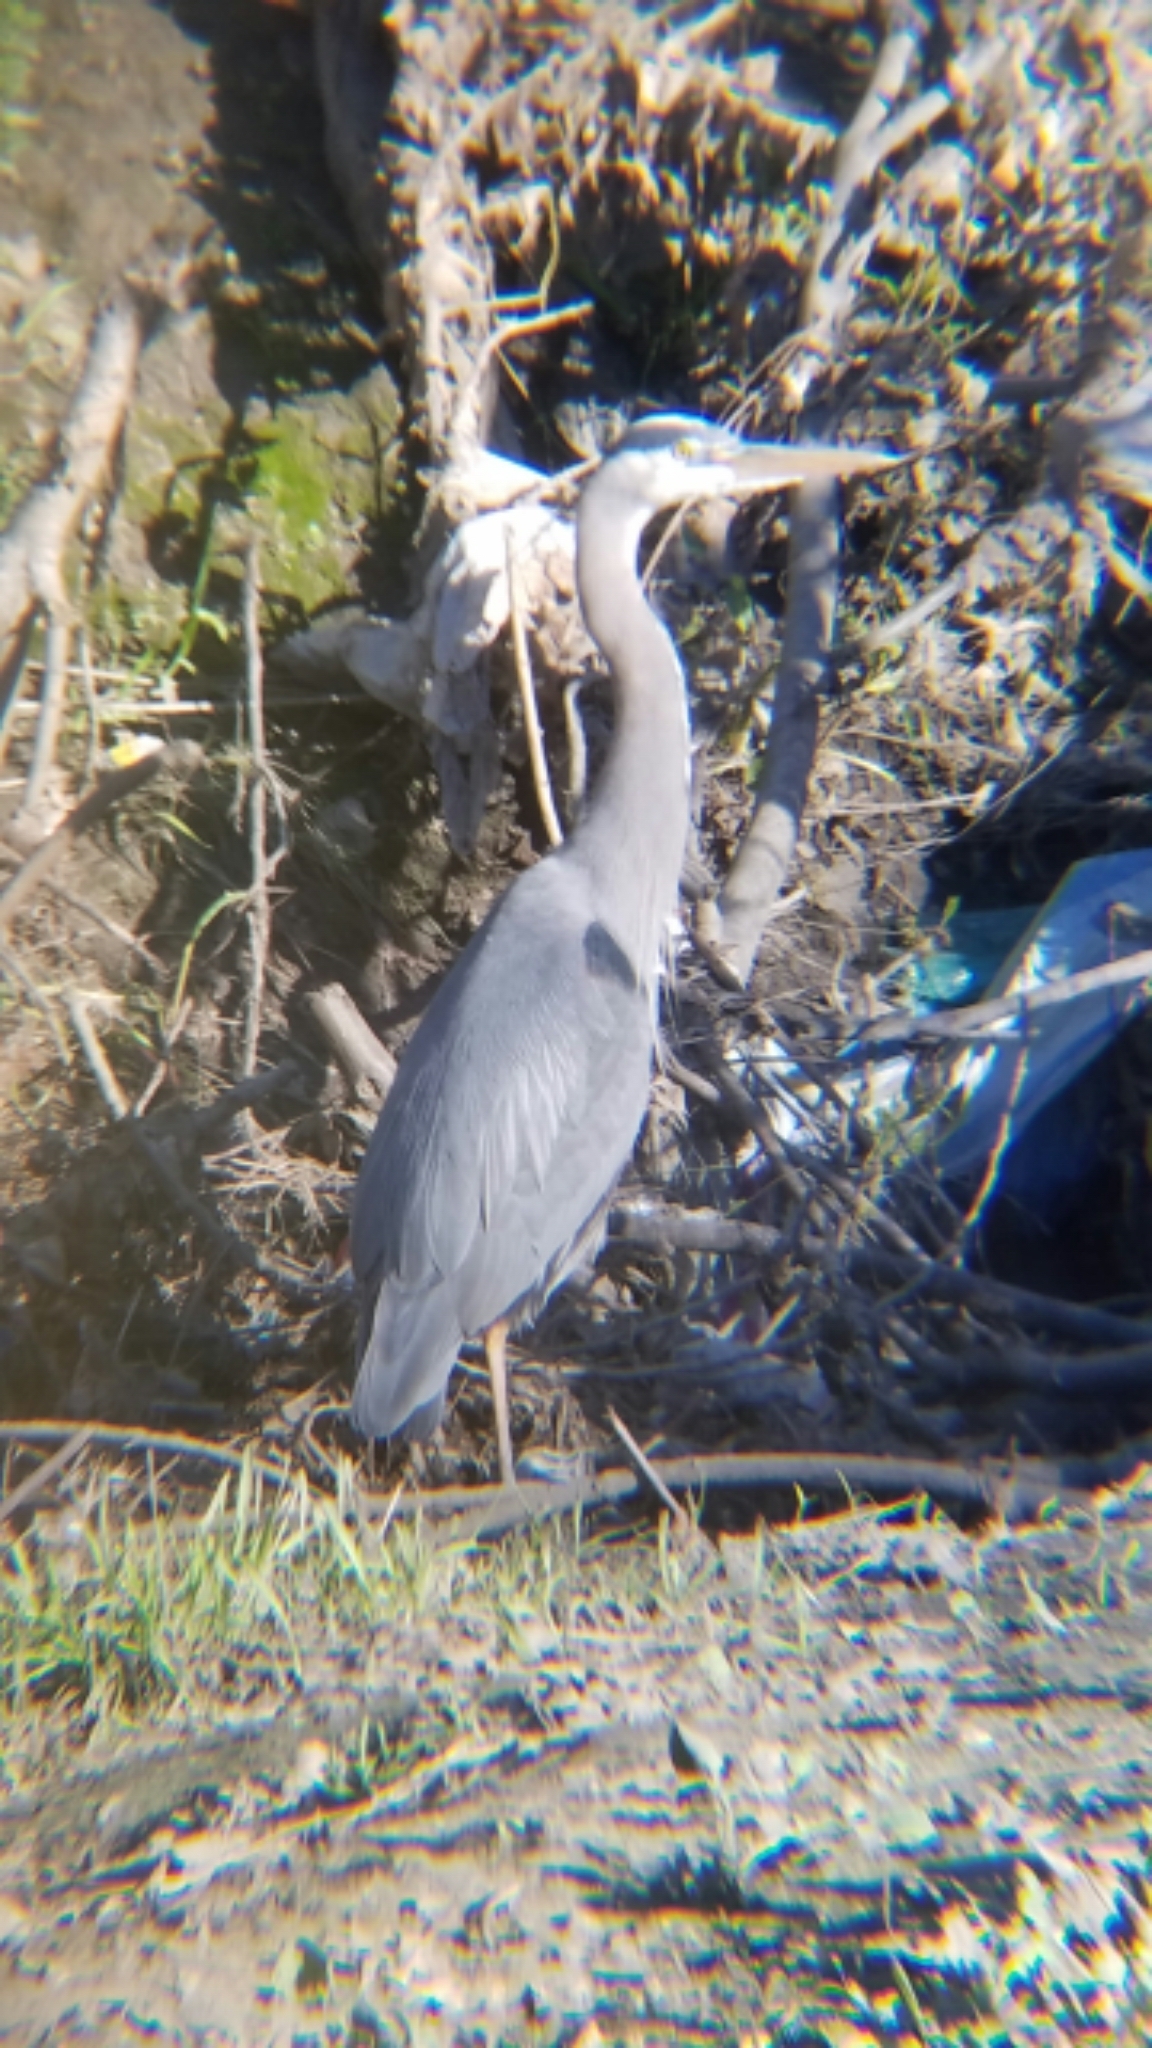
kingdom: Animalia
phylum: Chordata
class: Aves
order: Pelecaniformes
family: Ardeidae
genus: Ardea
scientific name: Ardea herodias
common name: Great blue heron
